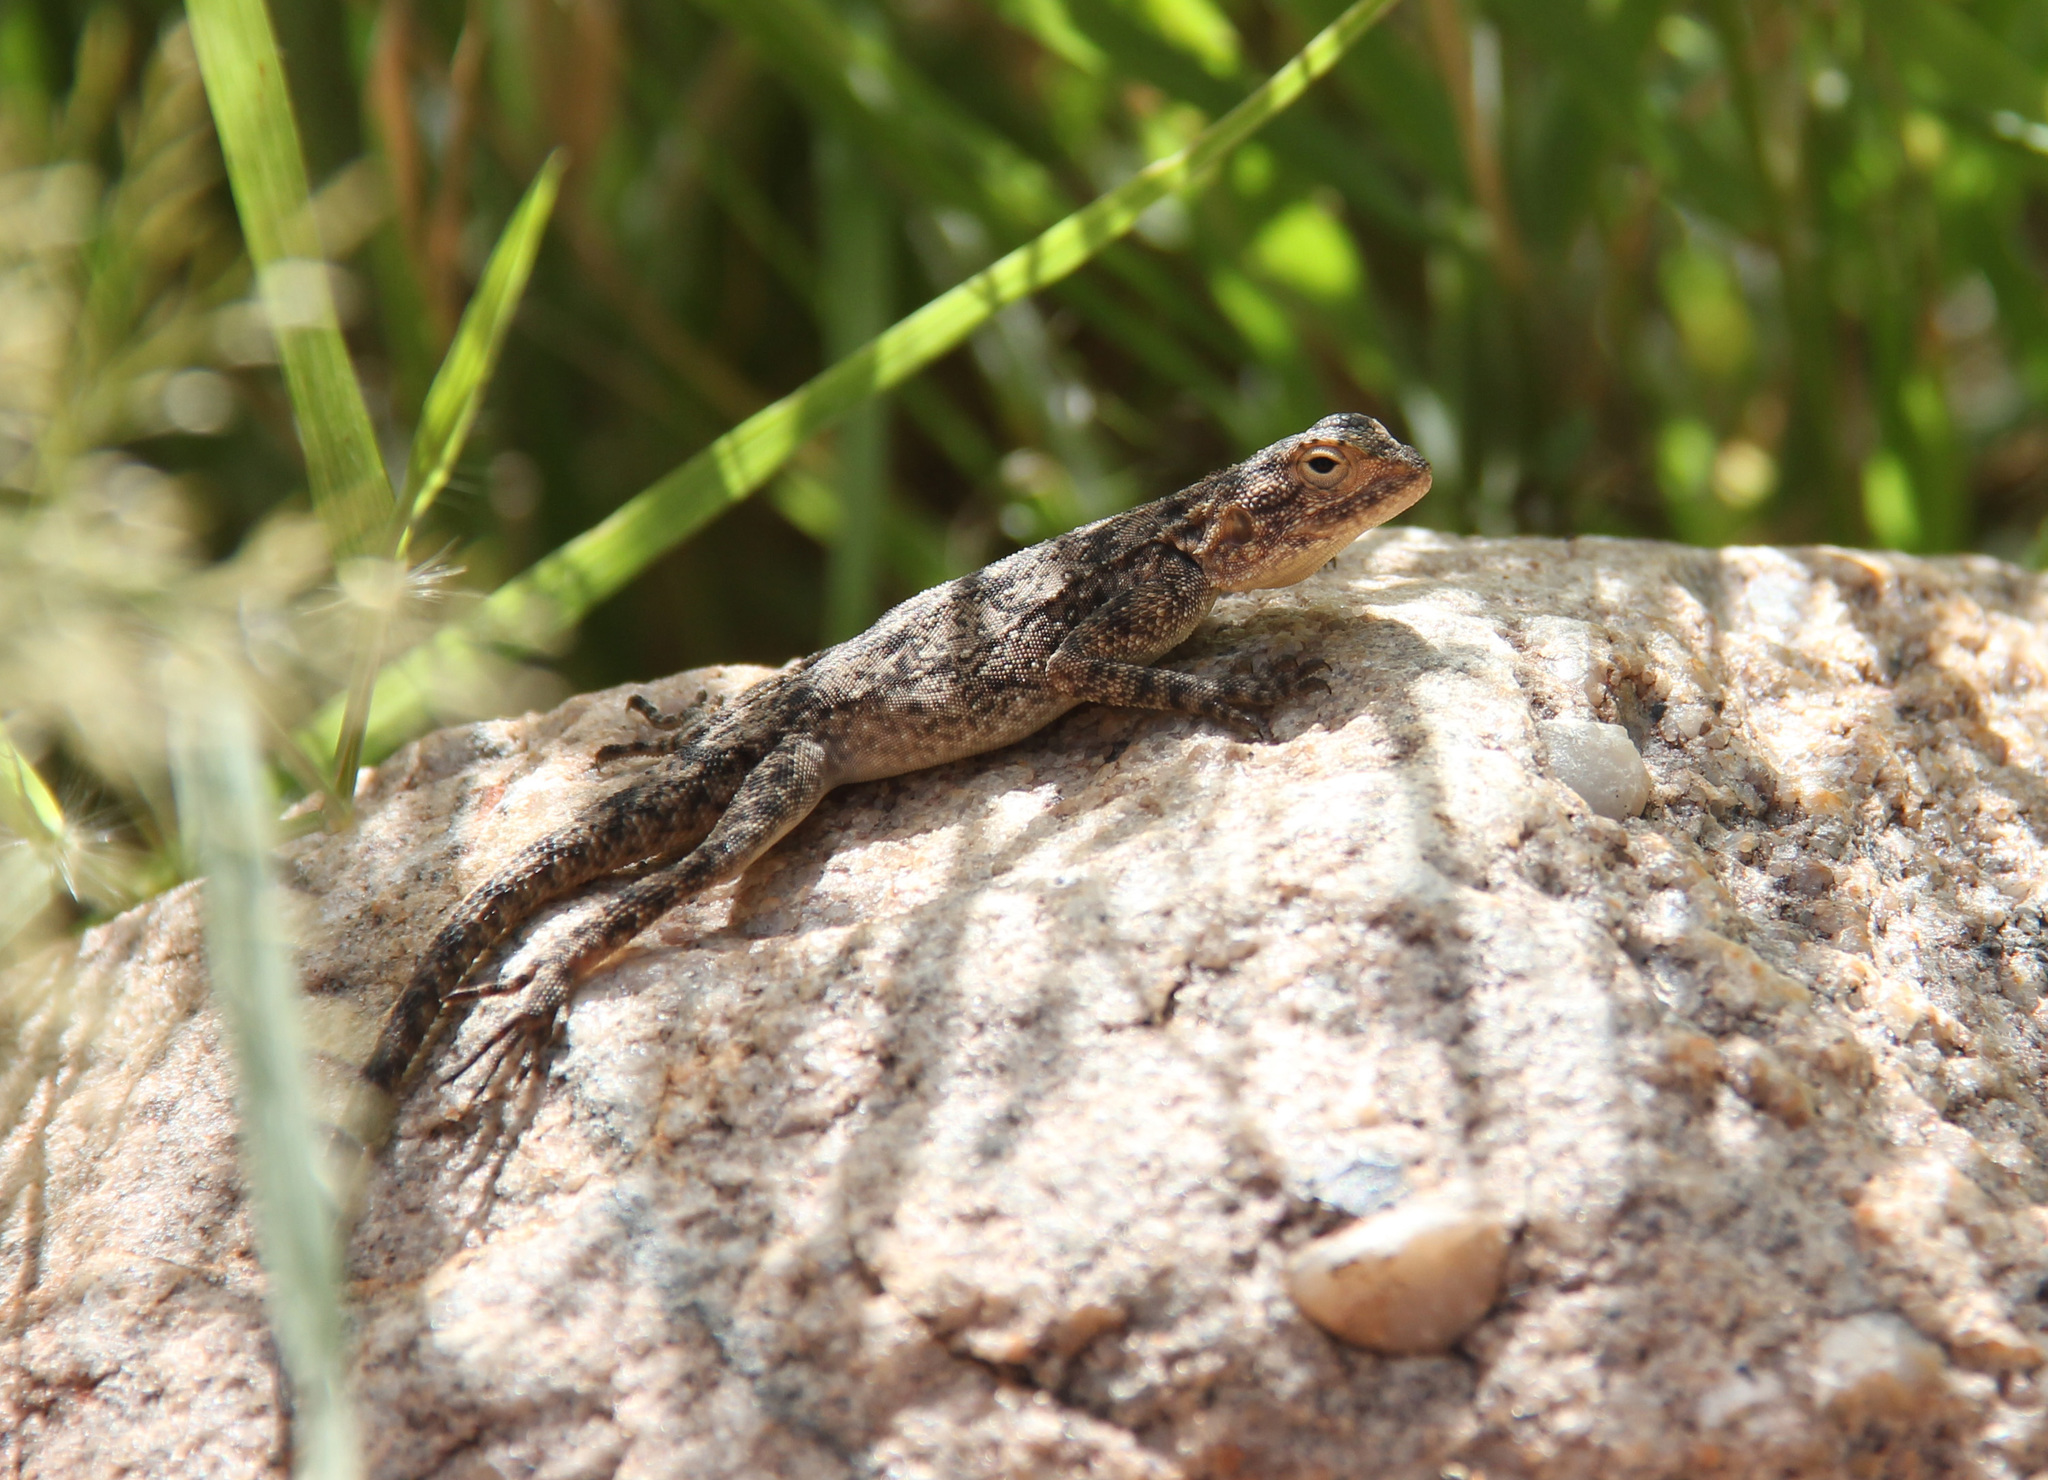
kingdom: Animalia
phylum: Chordata
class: Squamata
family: Agamidae
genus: Agama
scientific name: Agama atra
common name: Southern african rock agama
